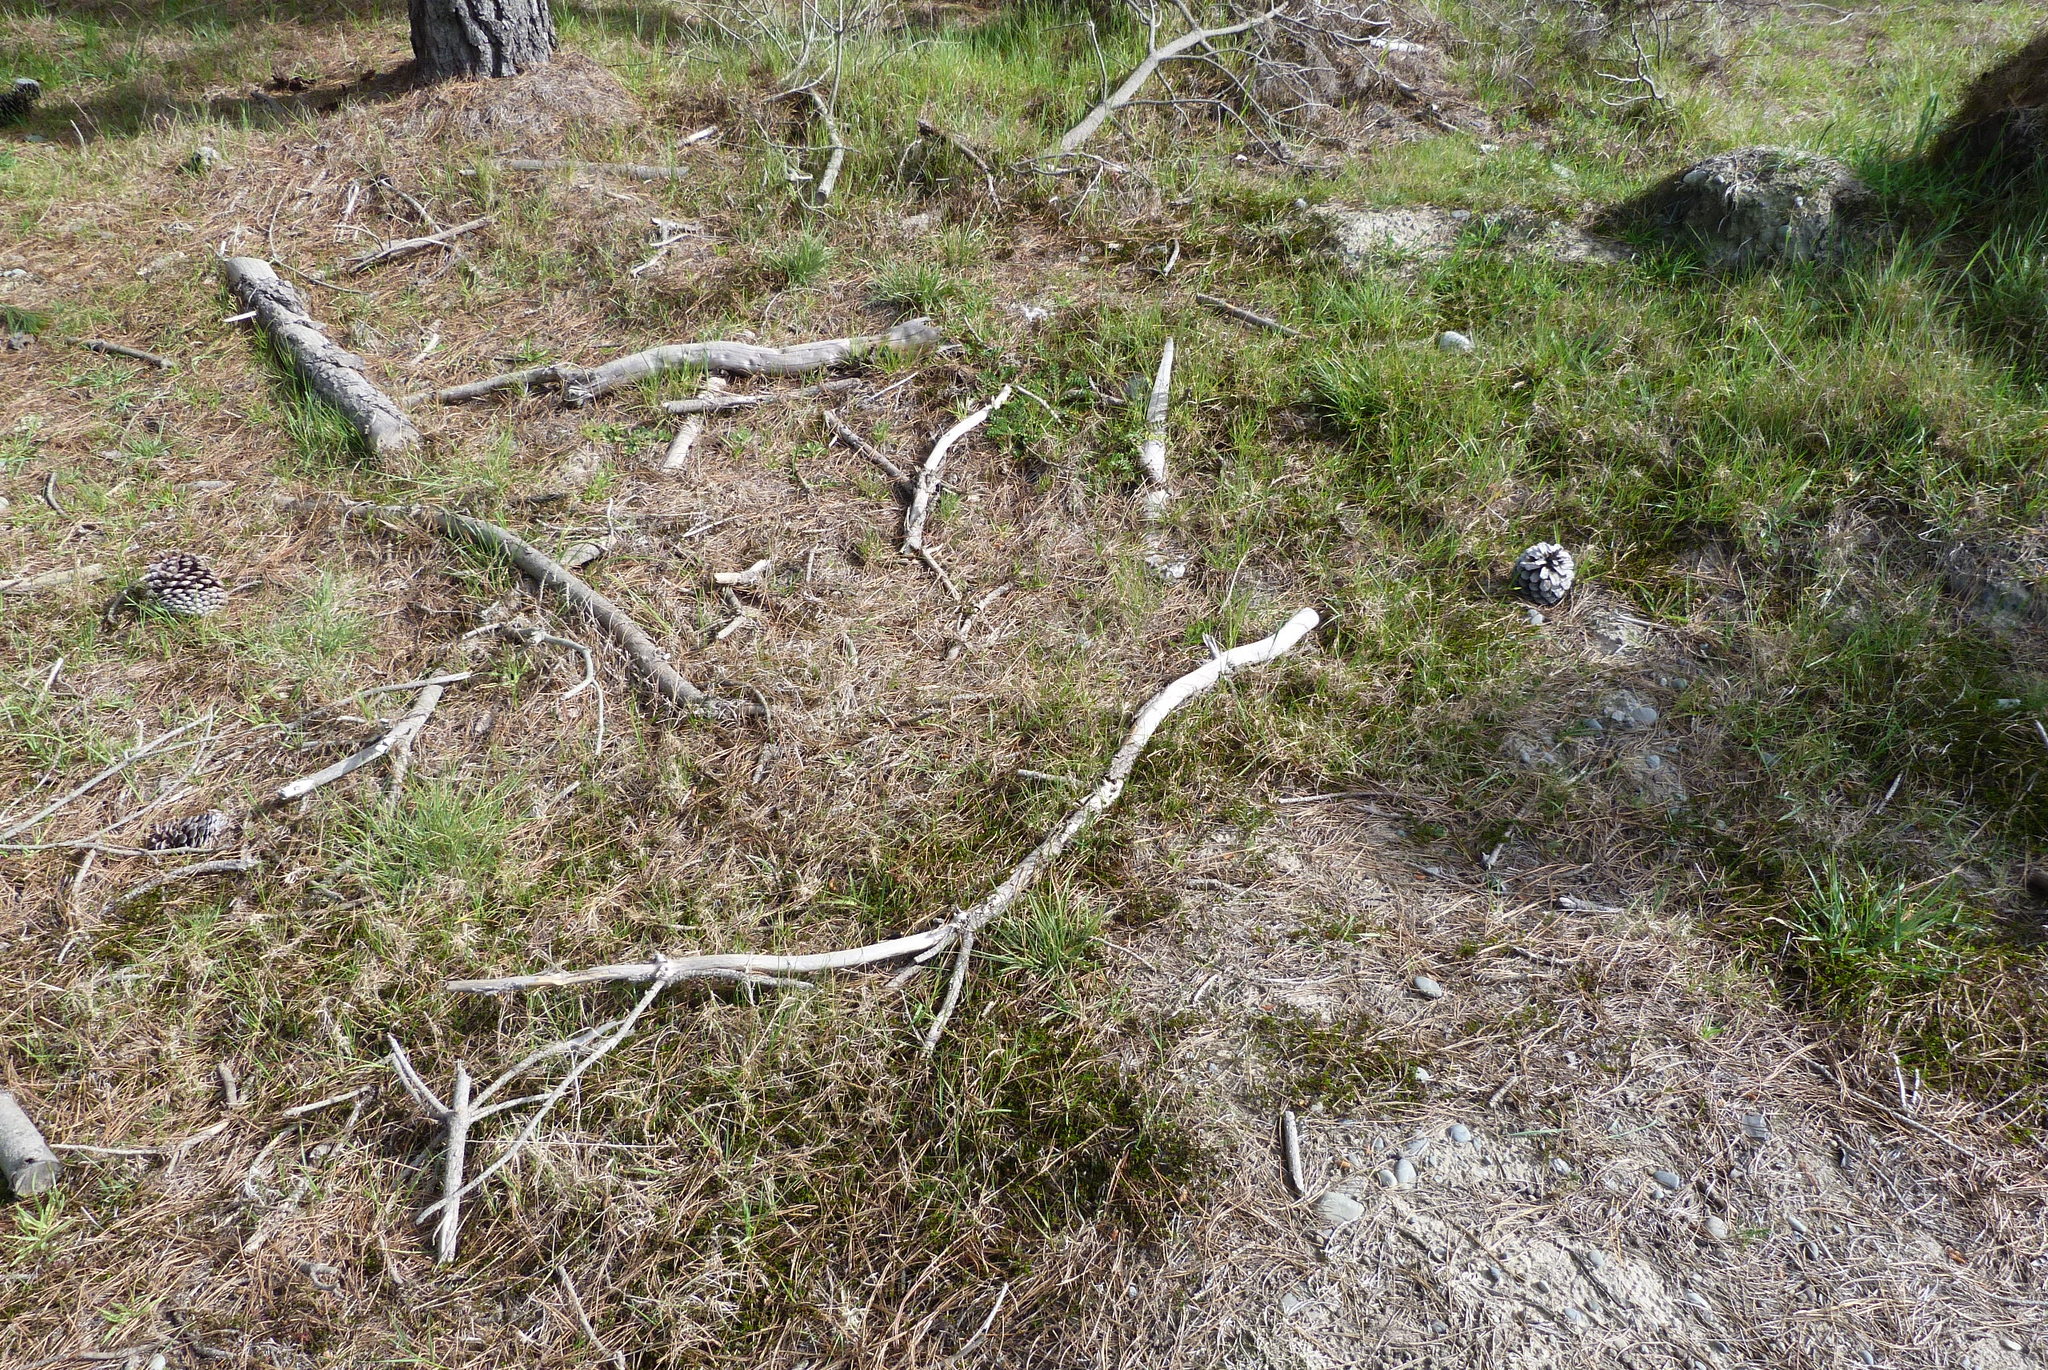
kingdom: Plantae
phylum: Tracheophyta
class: Magnoliopsida
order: Caryophyllales
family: Polygonaceae
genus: Muehlenbeckia
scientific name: Muehlenbeckia axillaris
